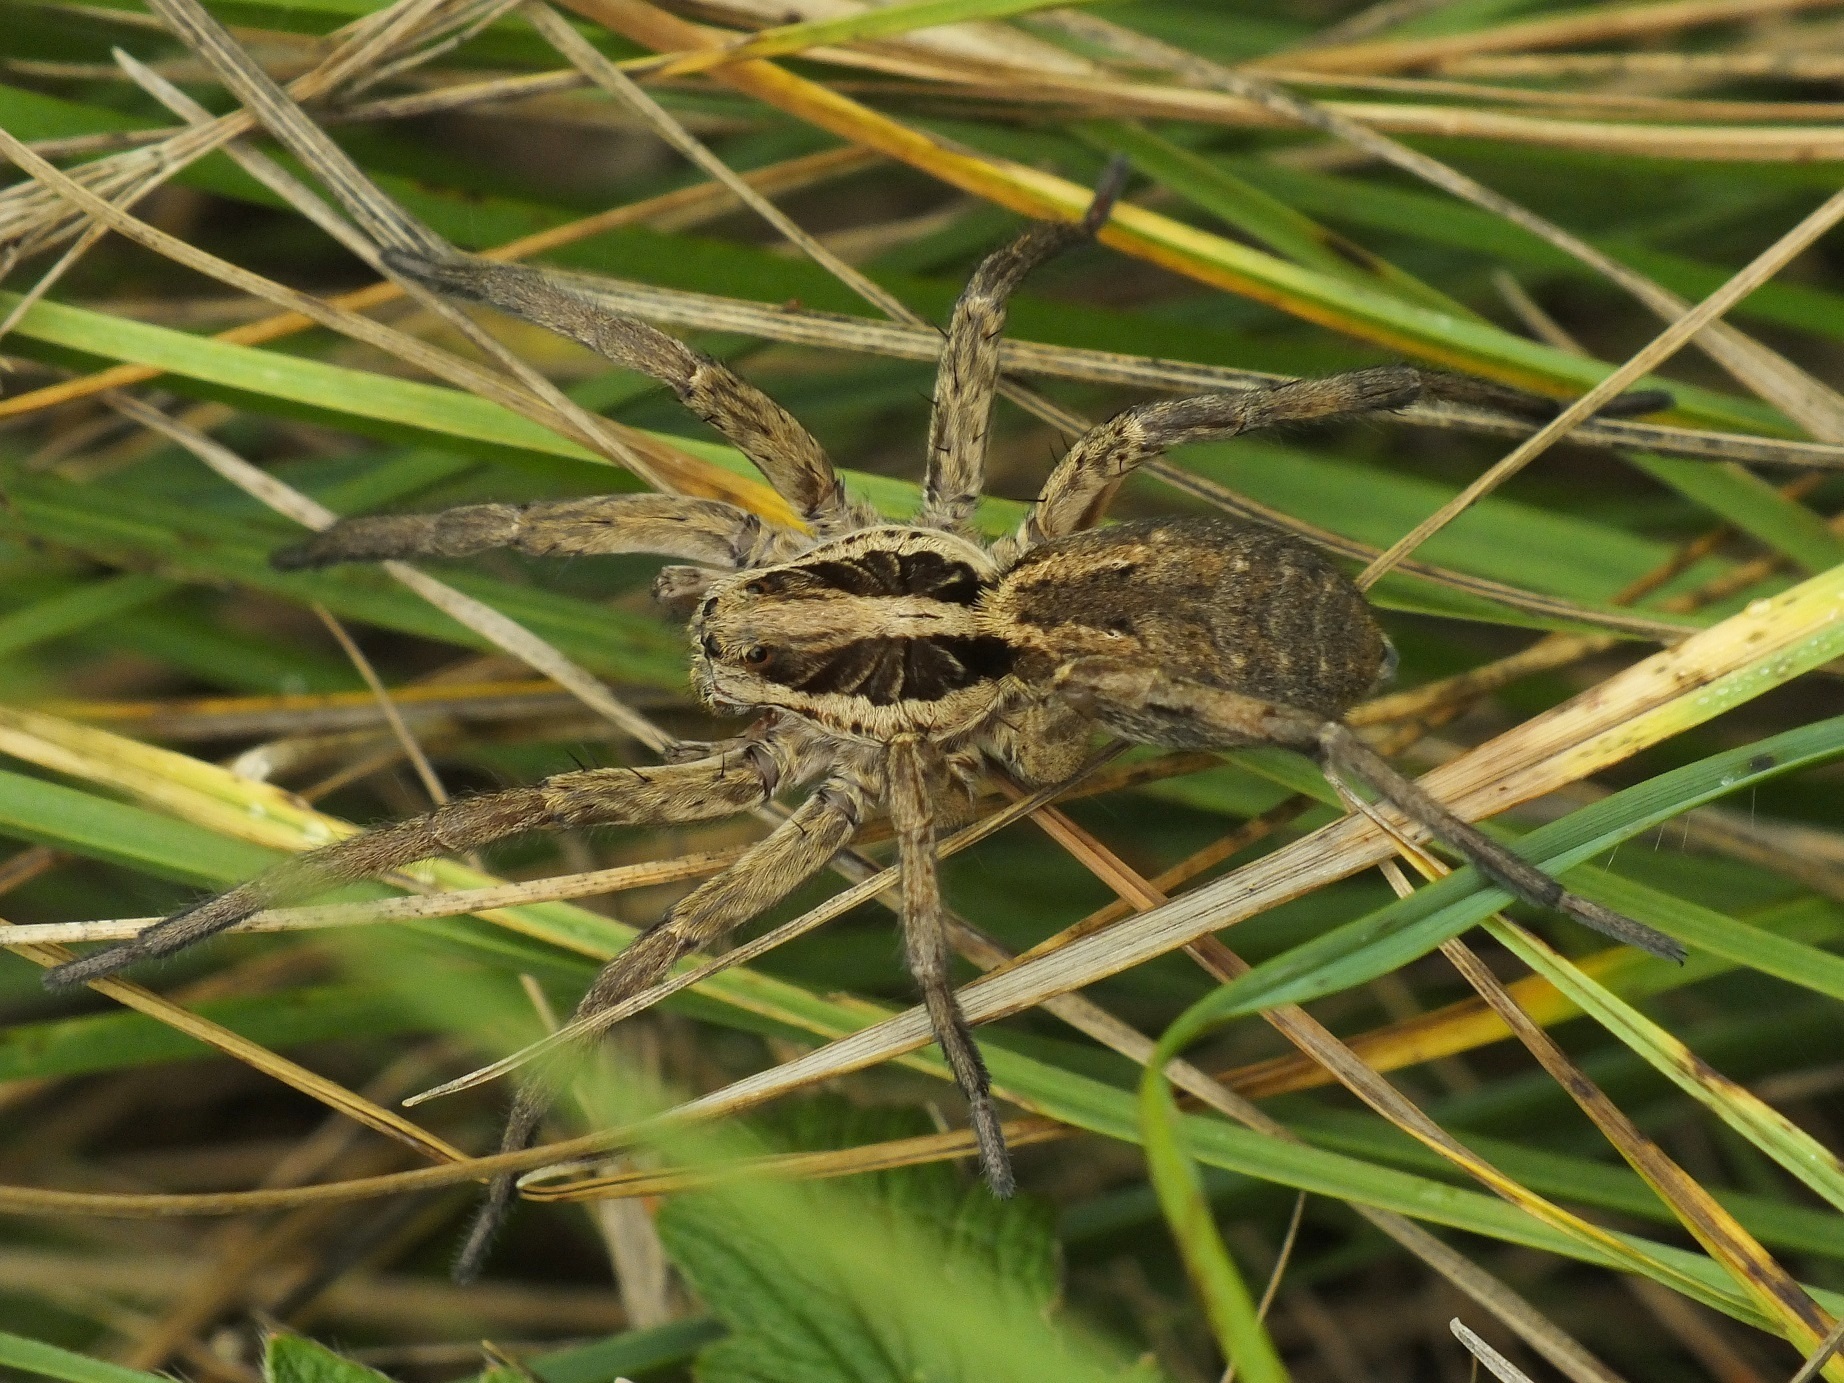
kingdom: Animalia
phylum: Arthropoda
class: Arachnida
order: Araneae
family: Lycosidae
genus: Hogna
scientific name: Hogna radiata
